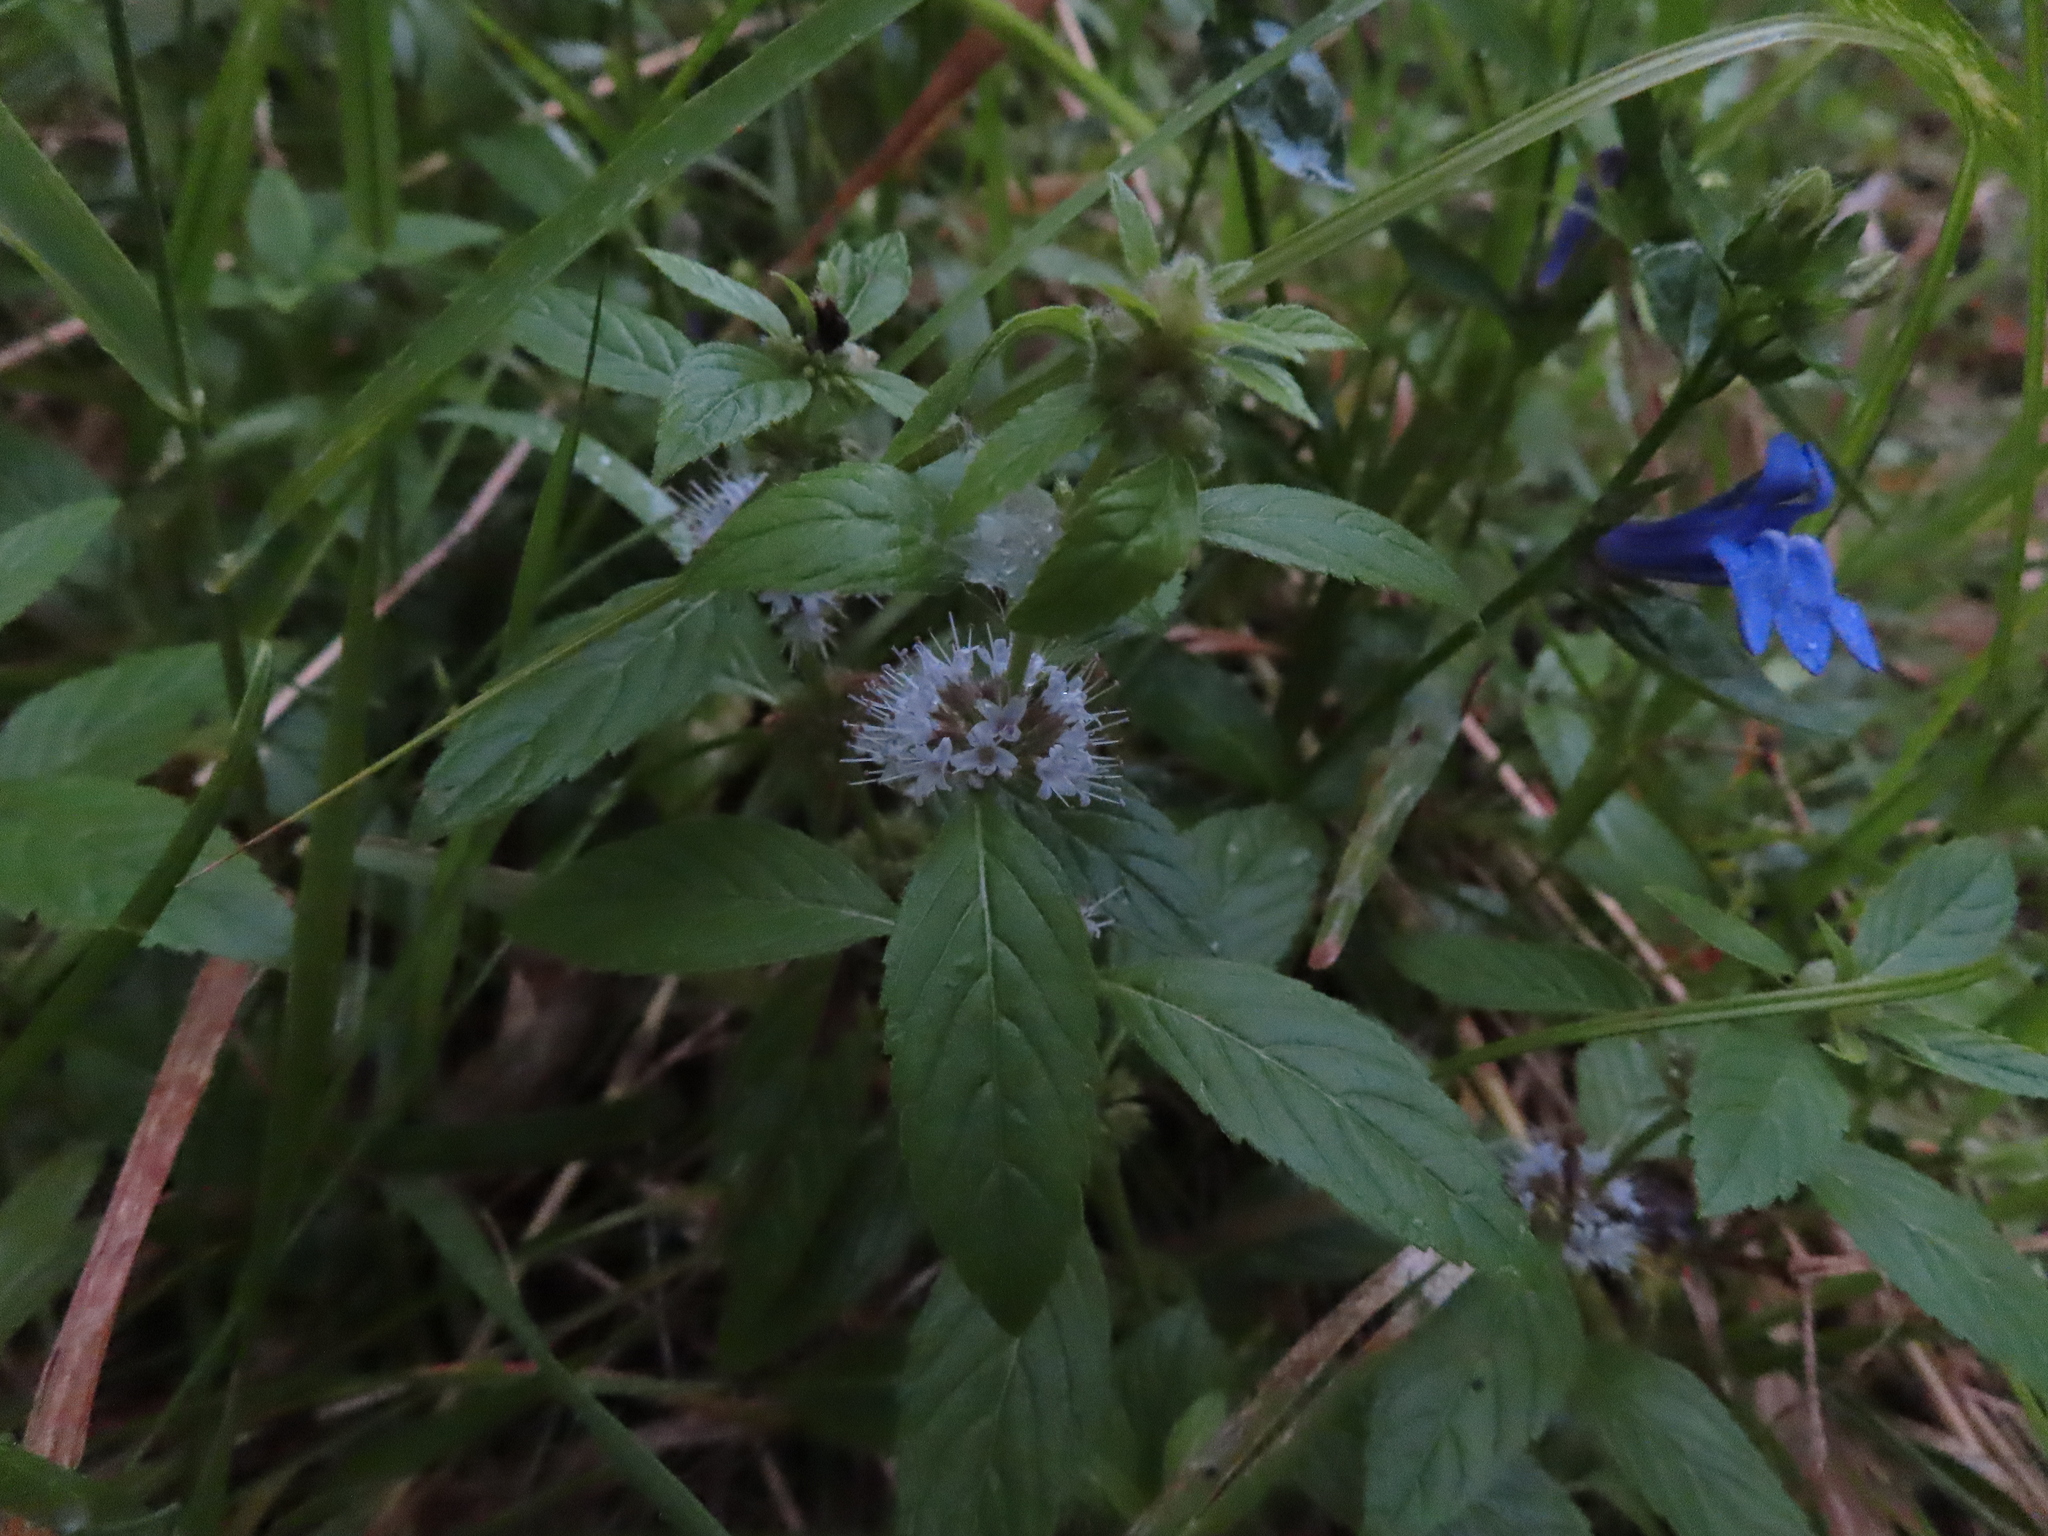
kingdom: Plantae
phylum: Tracheophyta
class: Magnoliopsida
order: Asterales
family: Campanulaceae
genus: Lobelia
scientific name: Lobelia siphilitica
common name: Great lobelia
